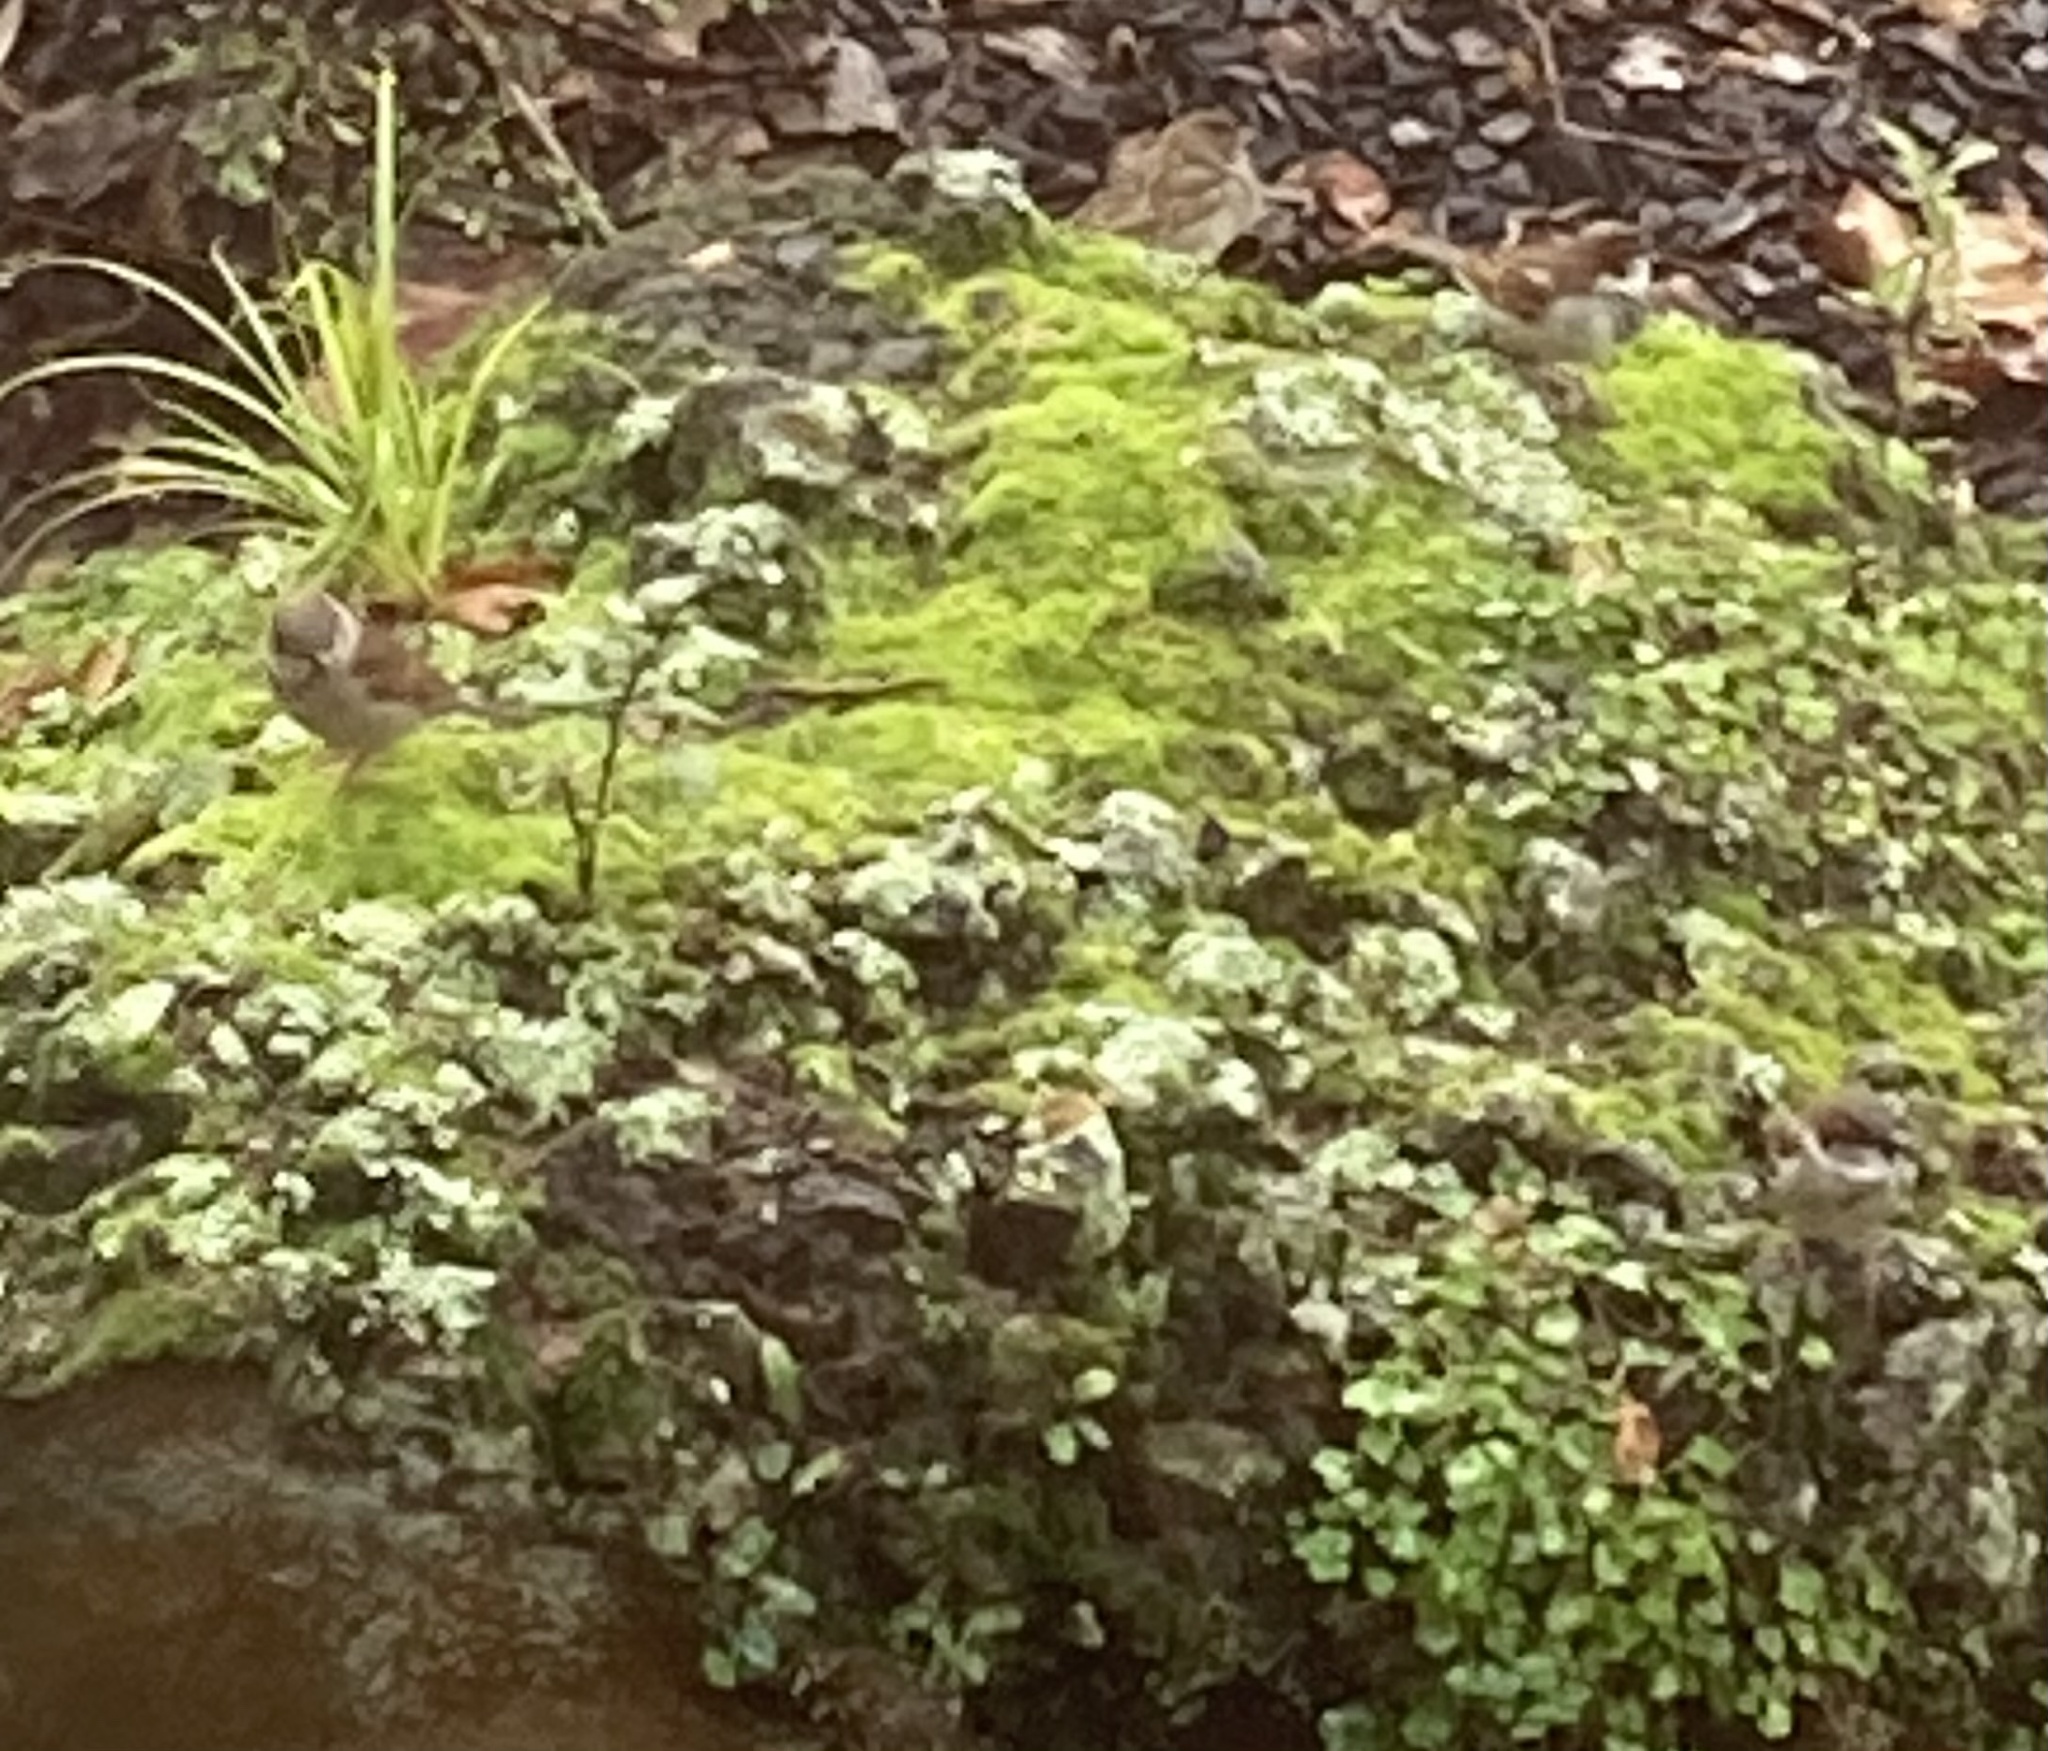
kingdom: Animalia
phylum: Chordata
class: Aves
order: Passeriformes
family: Passeridae
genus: Passer
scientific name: Passer domesticus
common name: House sparrow
